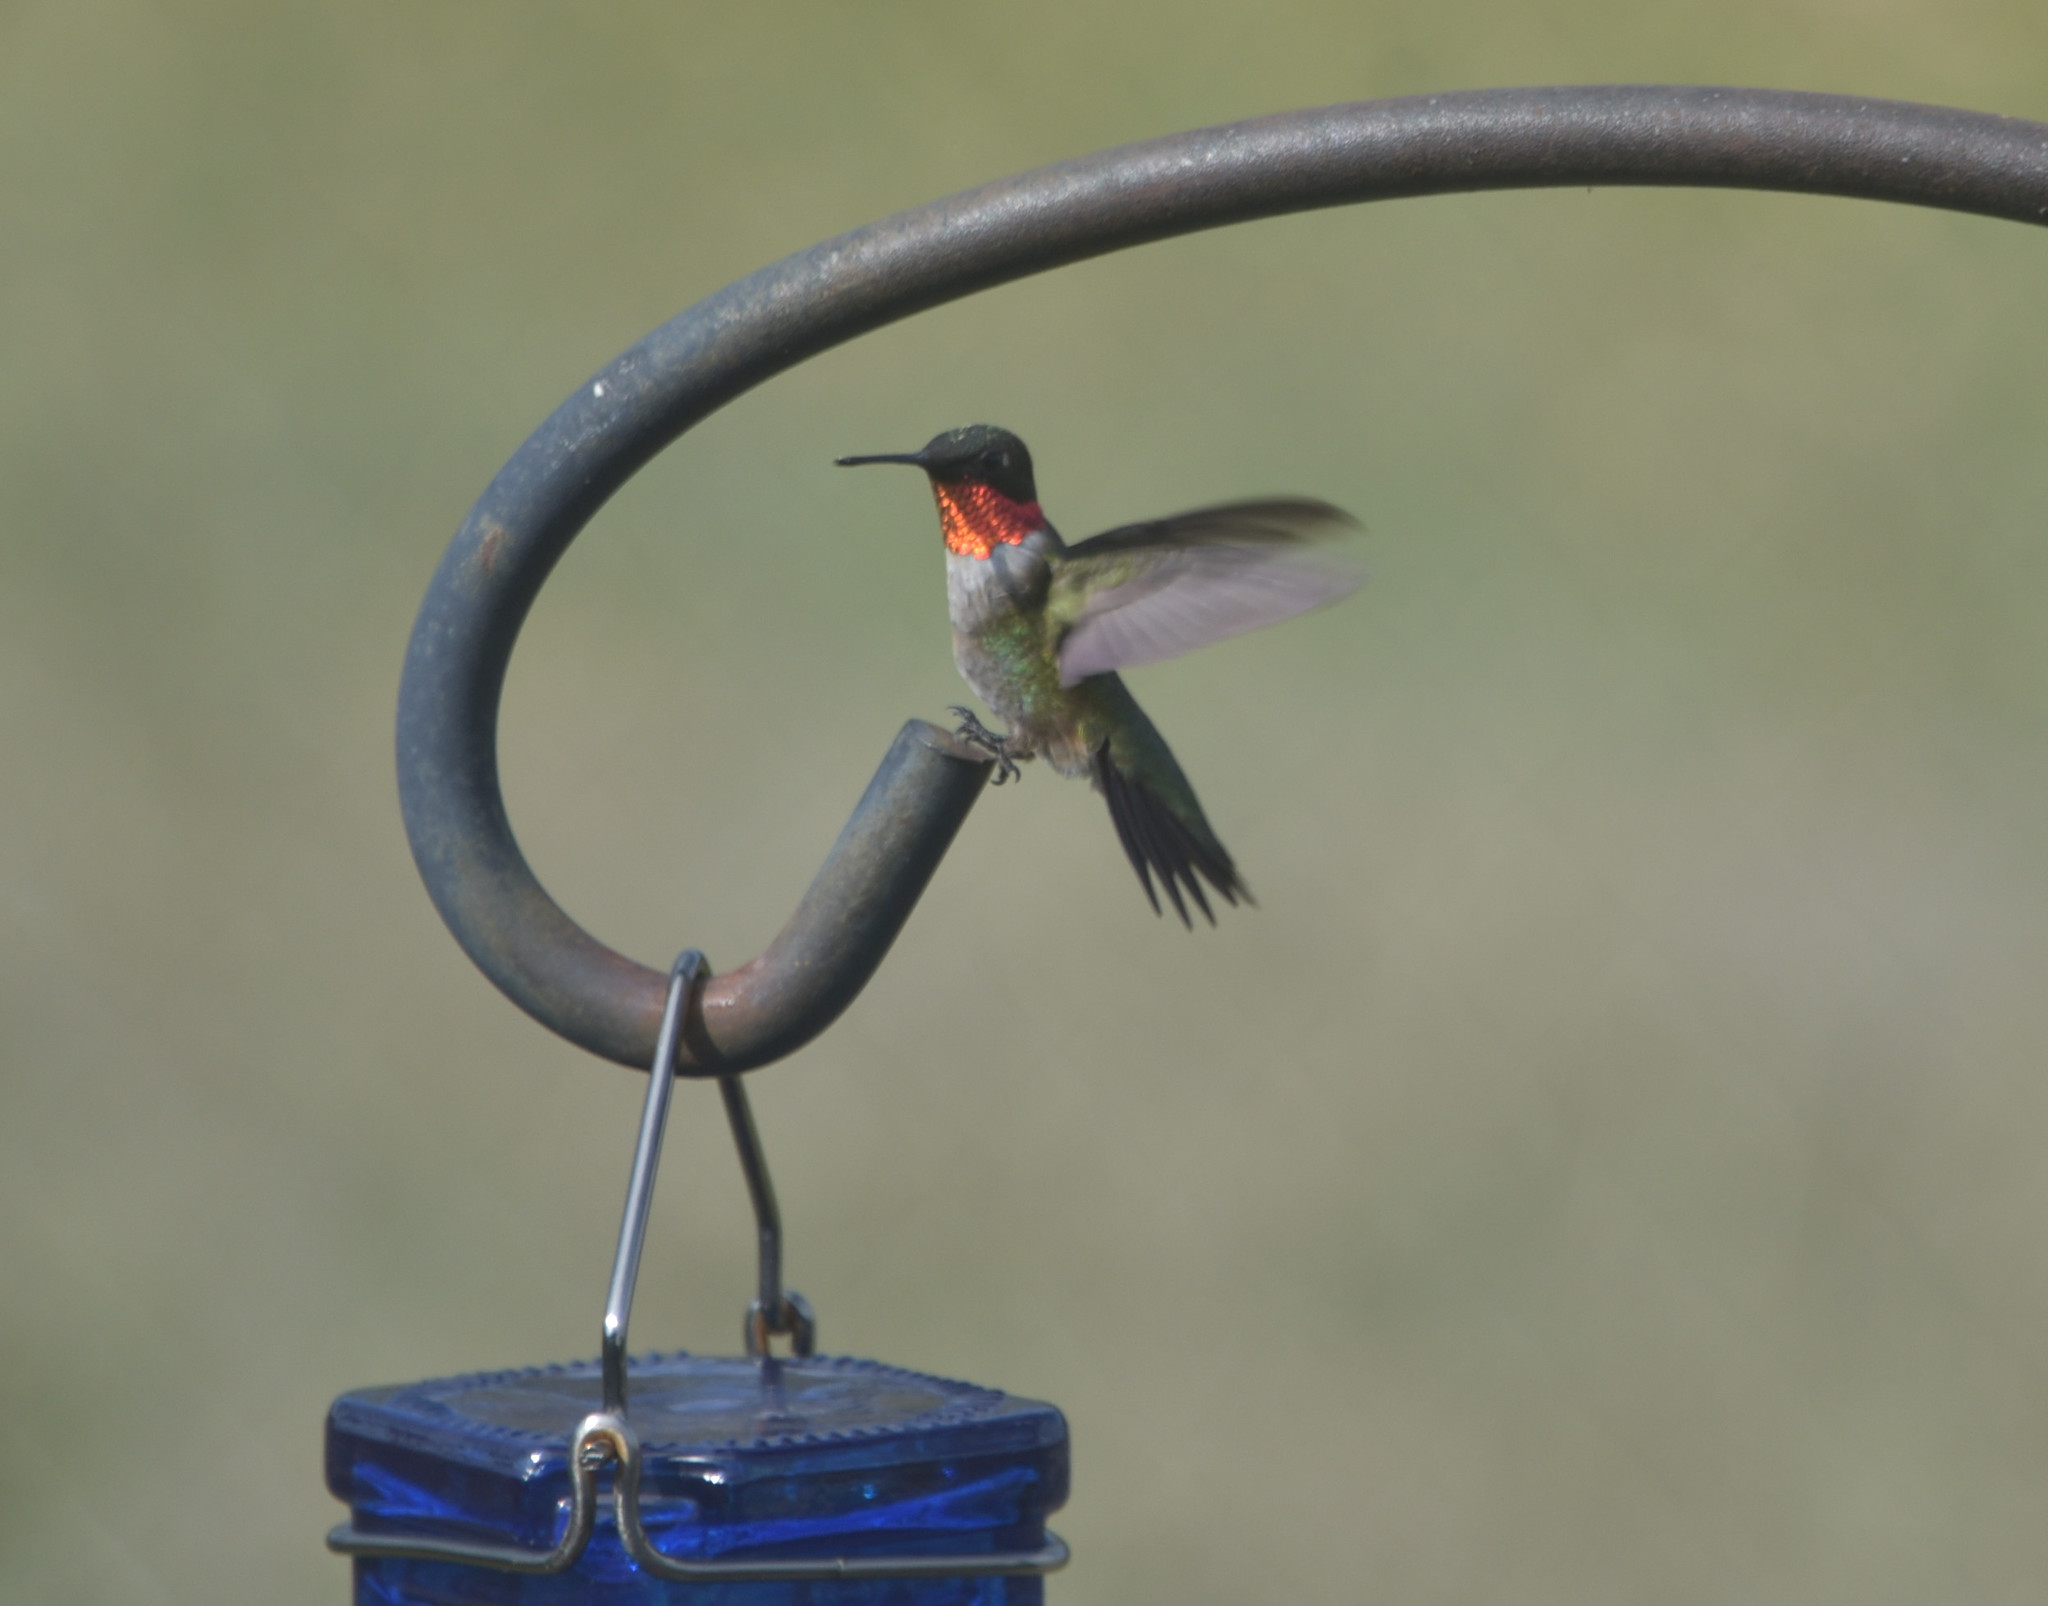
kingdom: Animalia
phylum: Chordata
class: Aves
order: Apodiformes
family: Trochilidae
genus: Archilochus
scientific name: Archilochus colubris
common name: Ruby-throated hummingbird
